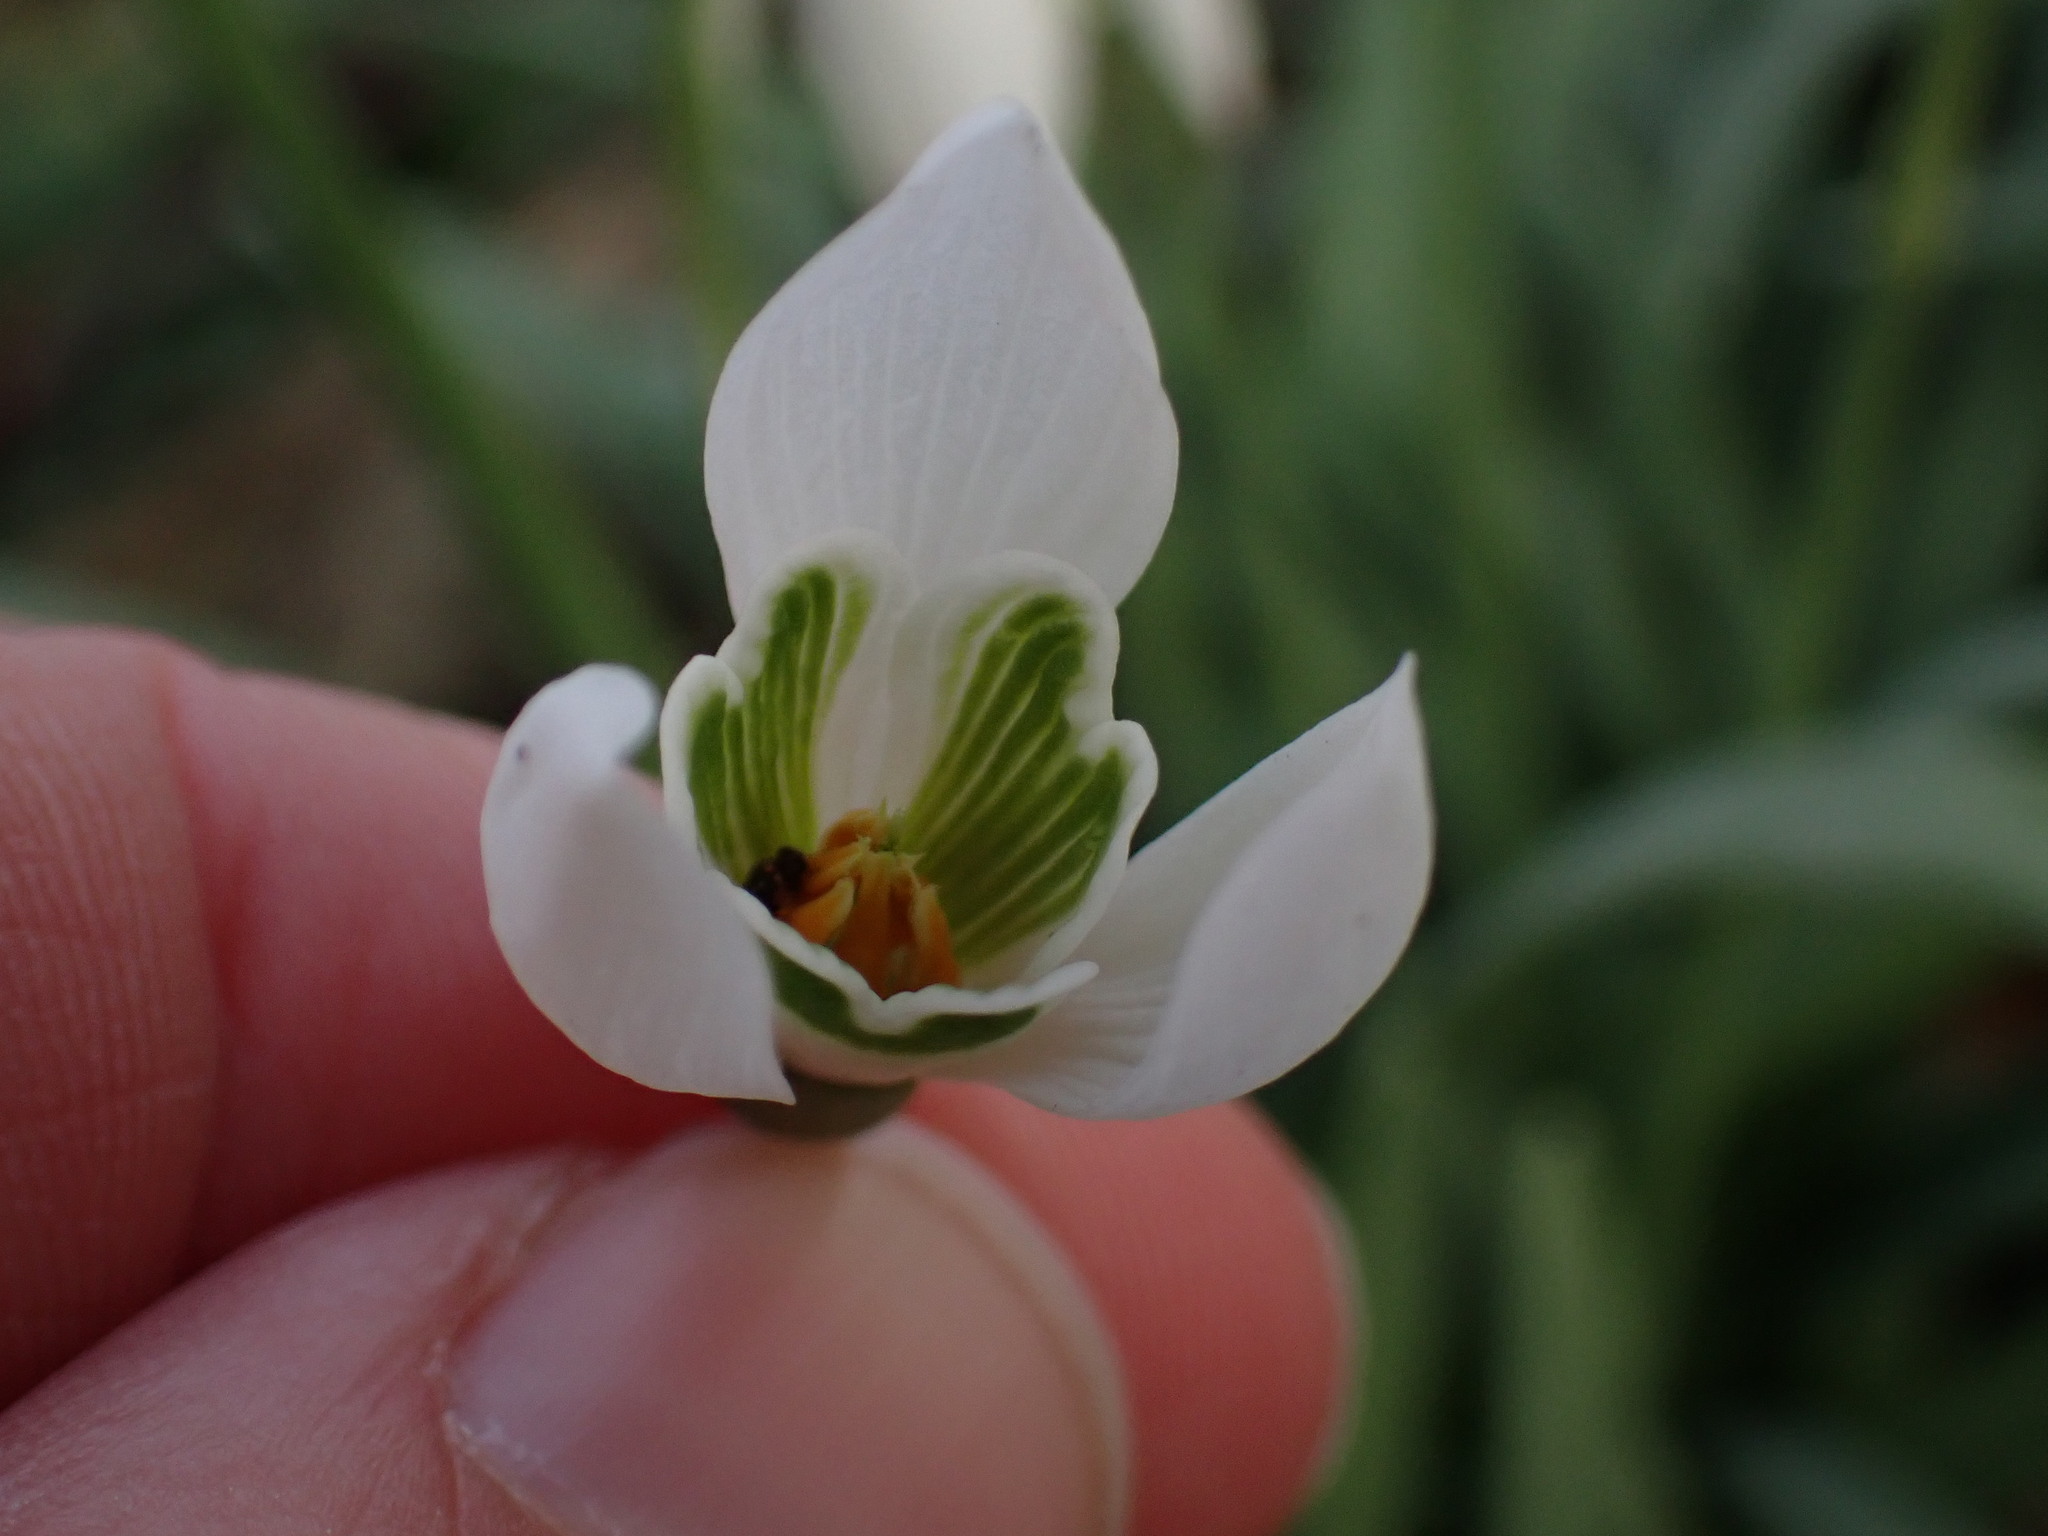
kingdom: Plantae
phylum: Tracheophyta
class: Liliopsida
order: Asparagales
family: Amaryllidaceae
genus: Galanthus
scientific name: Galanthus nivalis
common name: Snowdrop
